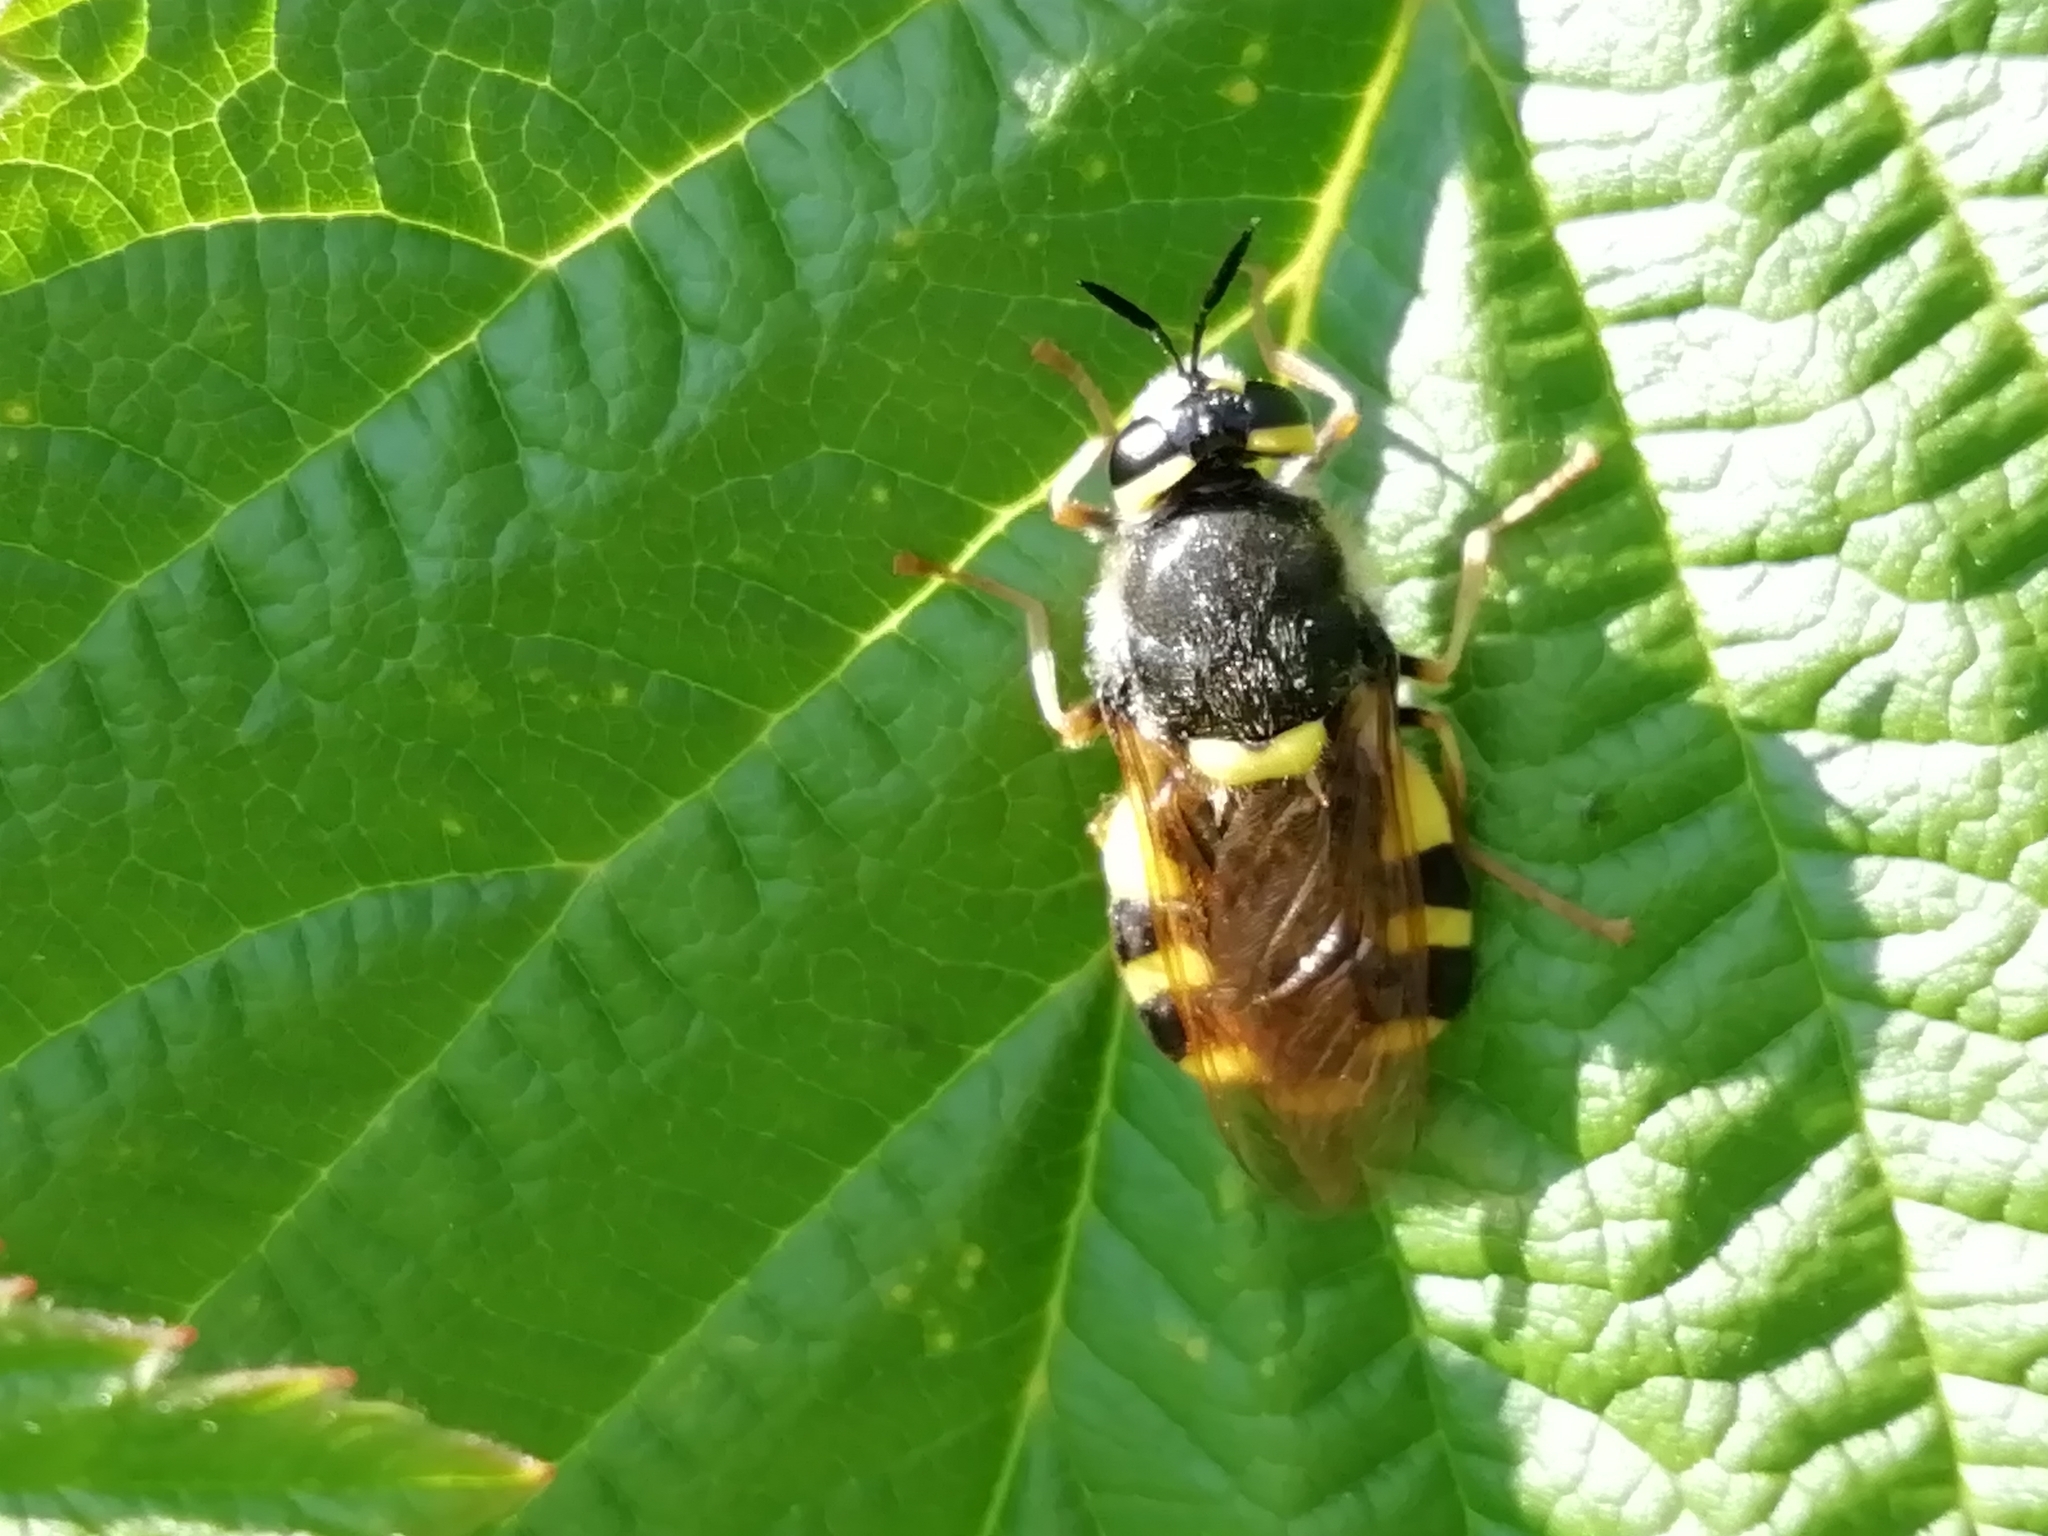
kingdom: Animalia
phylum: Arthropoda
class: Insecta
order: Diptera
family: Stratiomyidae
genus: Stratiomys
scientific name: Stratiomys chamaeleon
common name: Clubbed general
